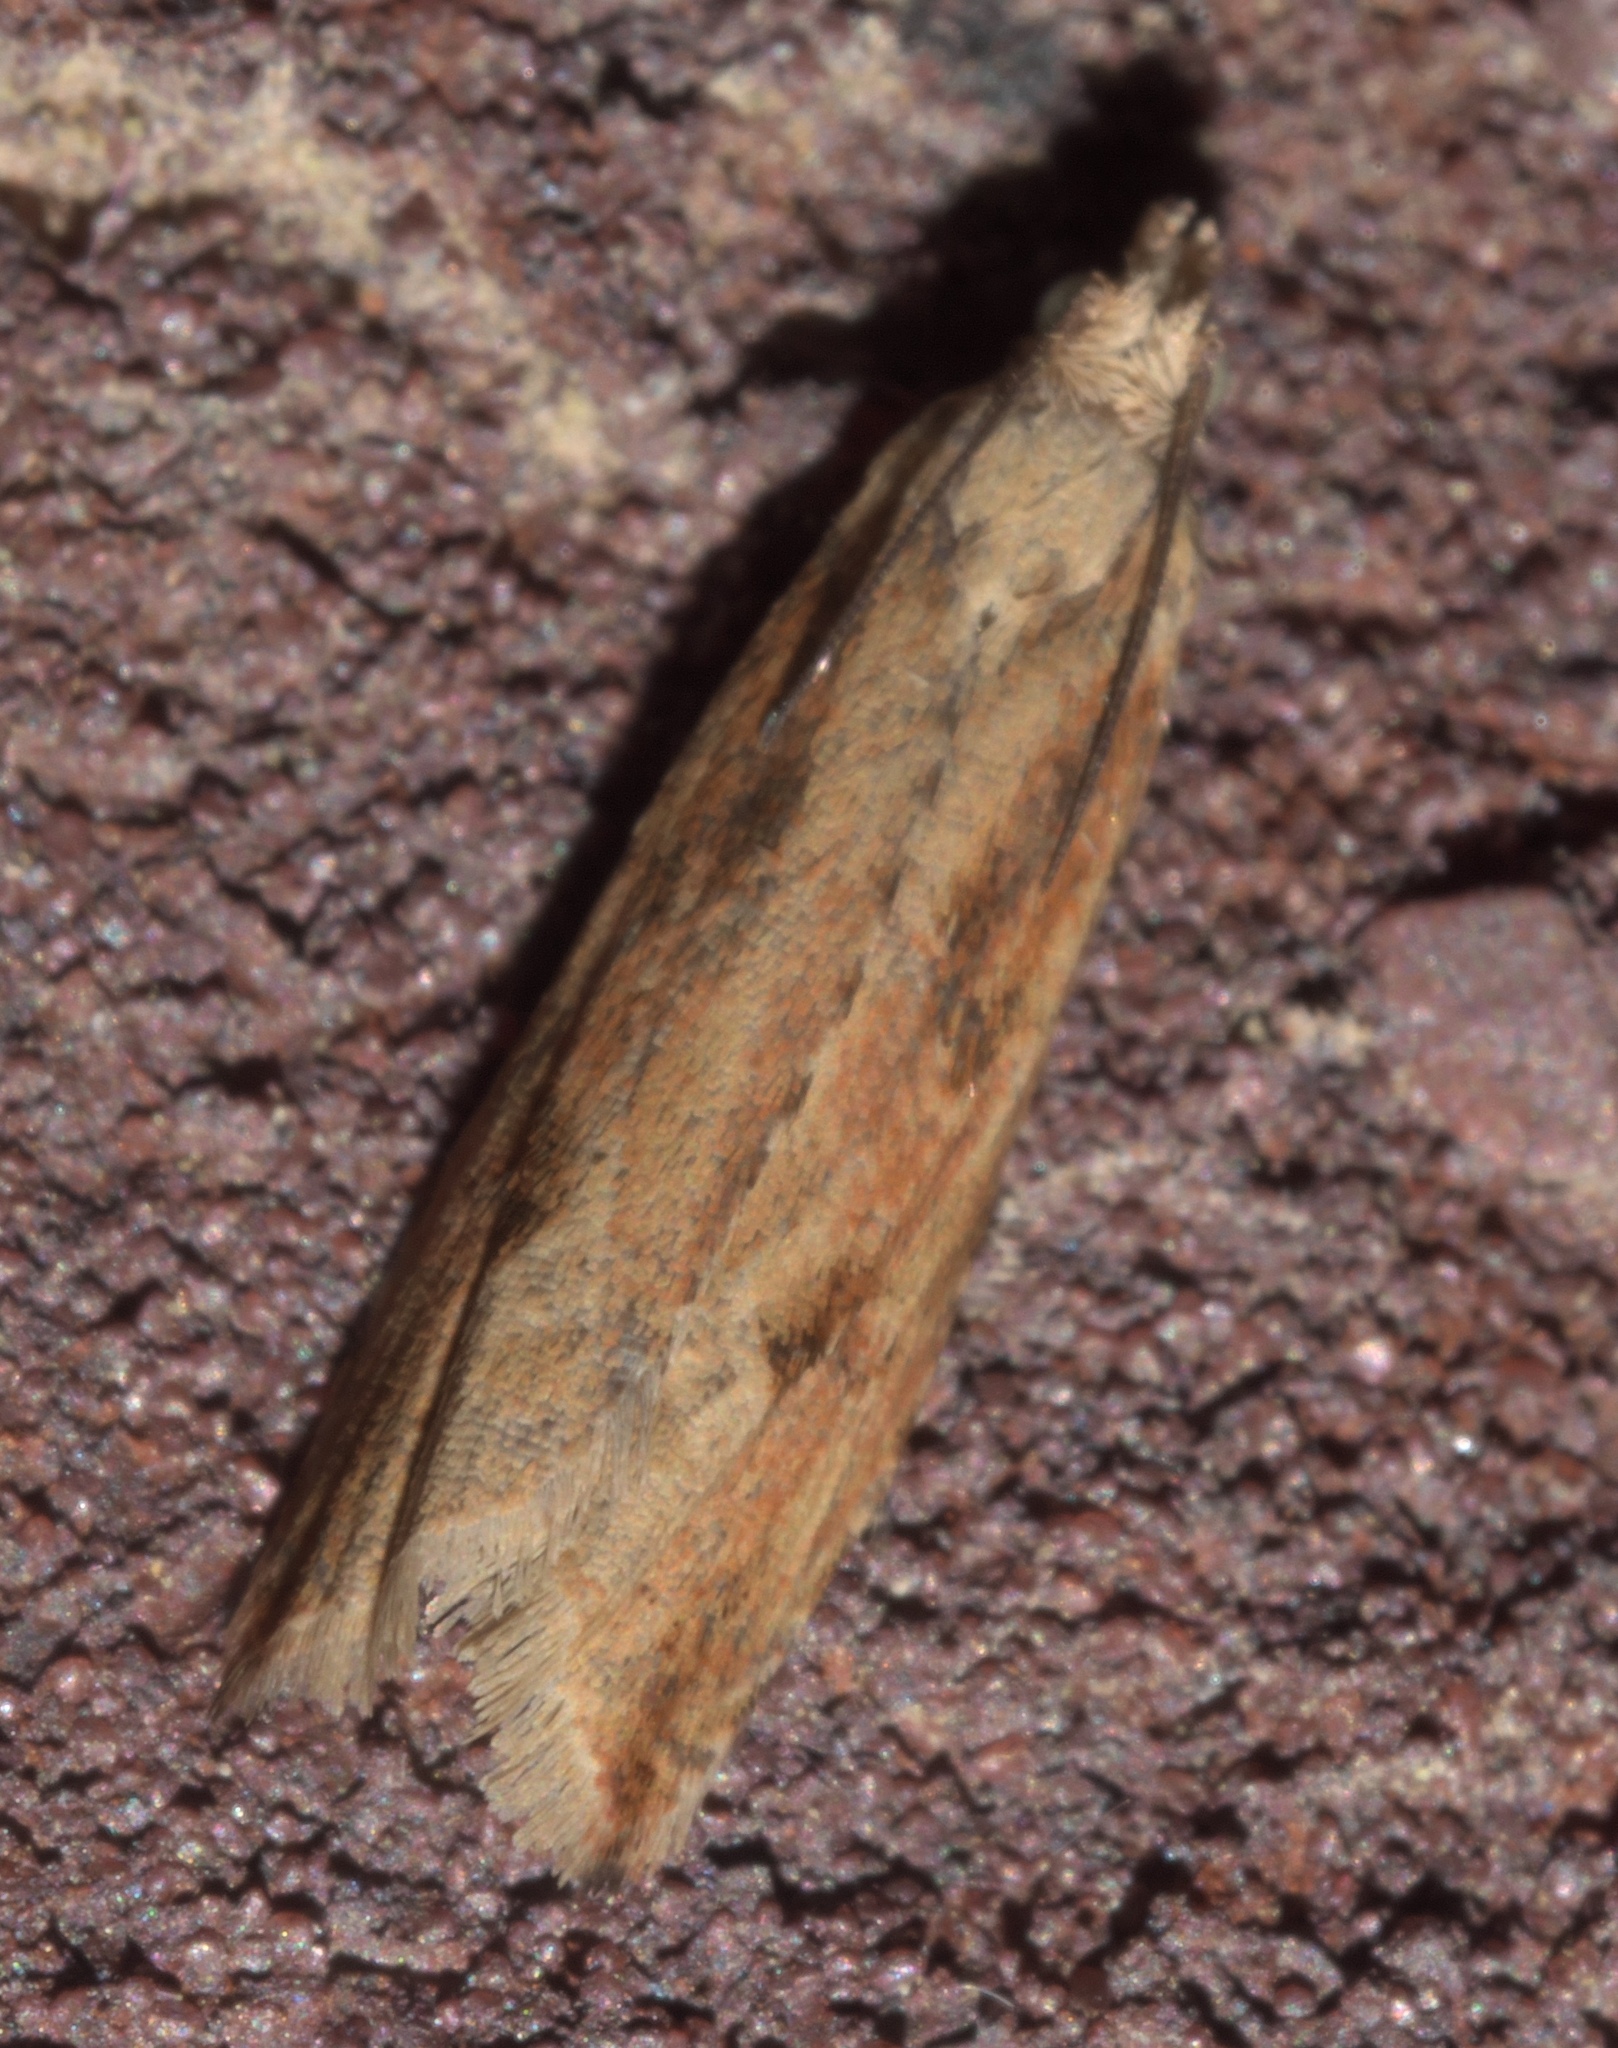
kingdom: Animalia
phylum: Arthropoda
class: Insecta
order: Lepidoptera
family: Tortricidae
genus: Bactra
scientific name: Bactra verutana
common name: Javelin moth
